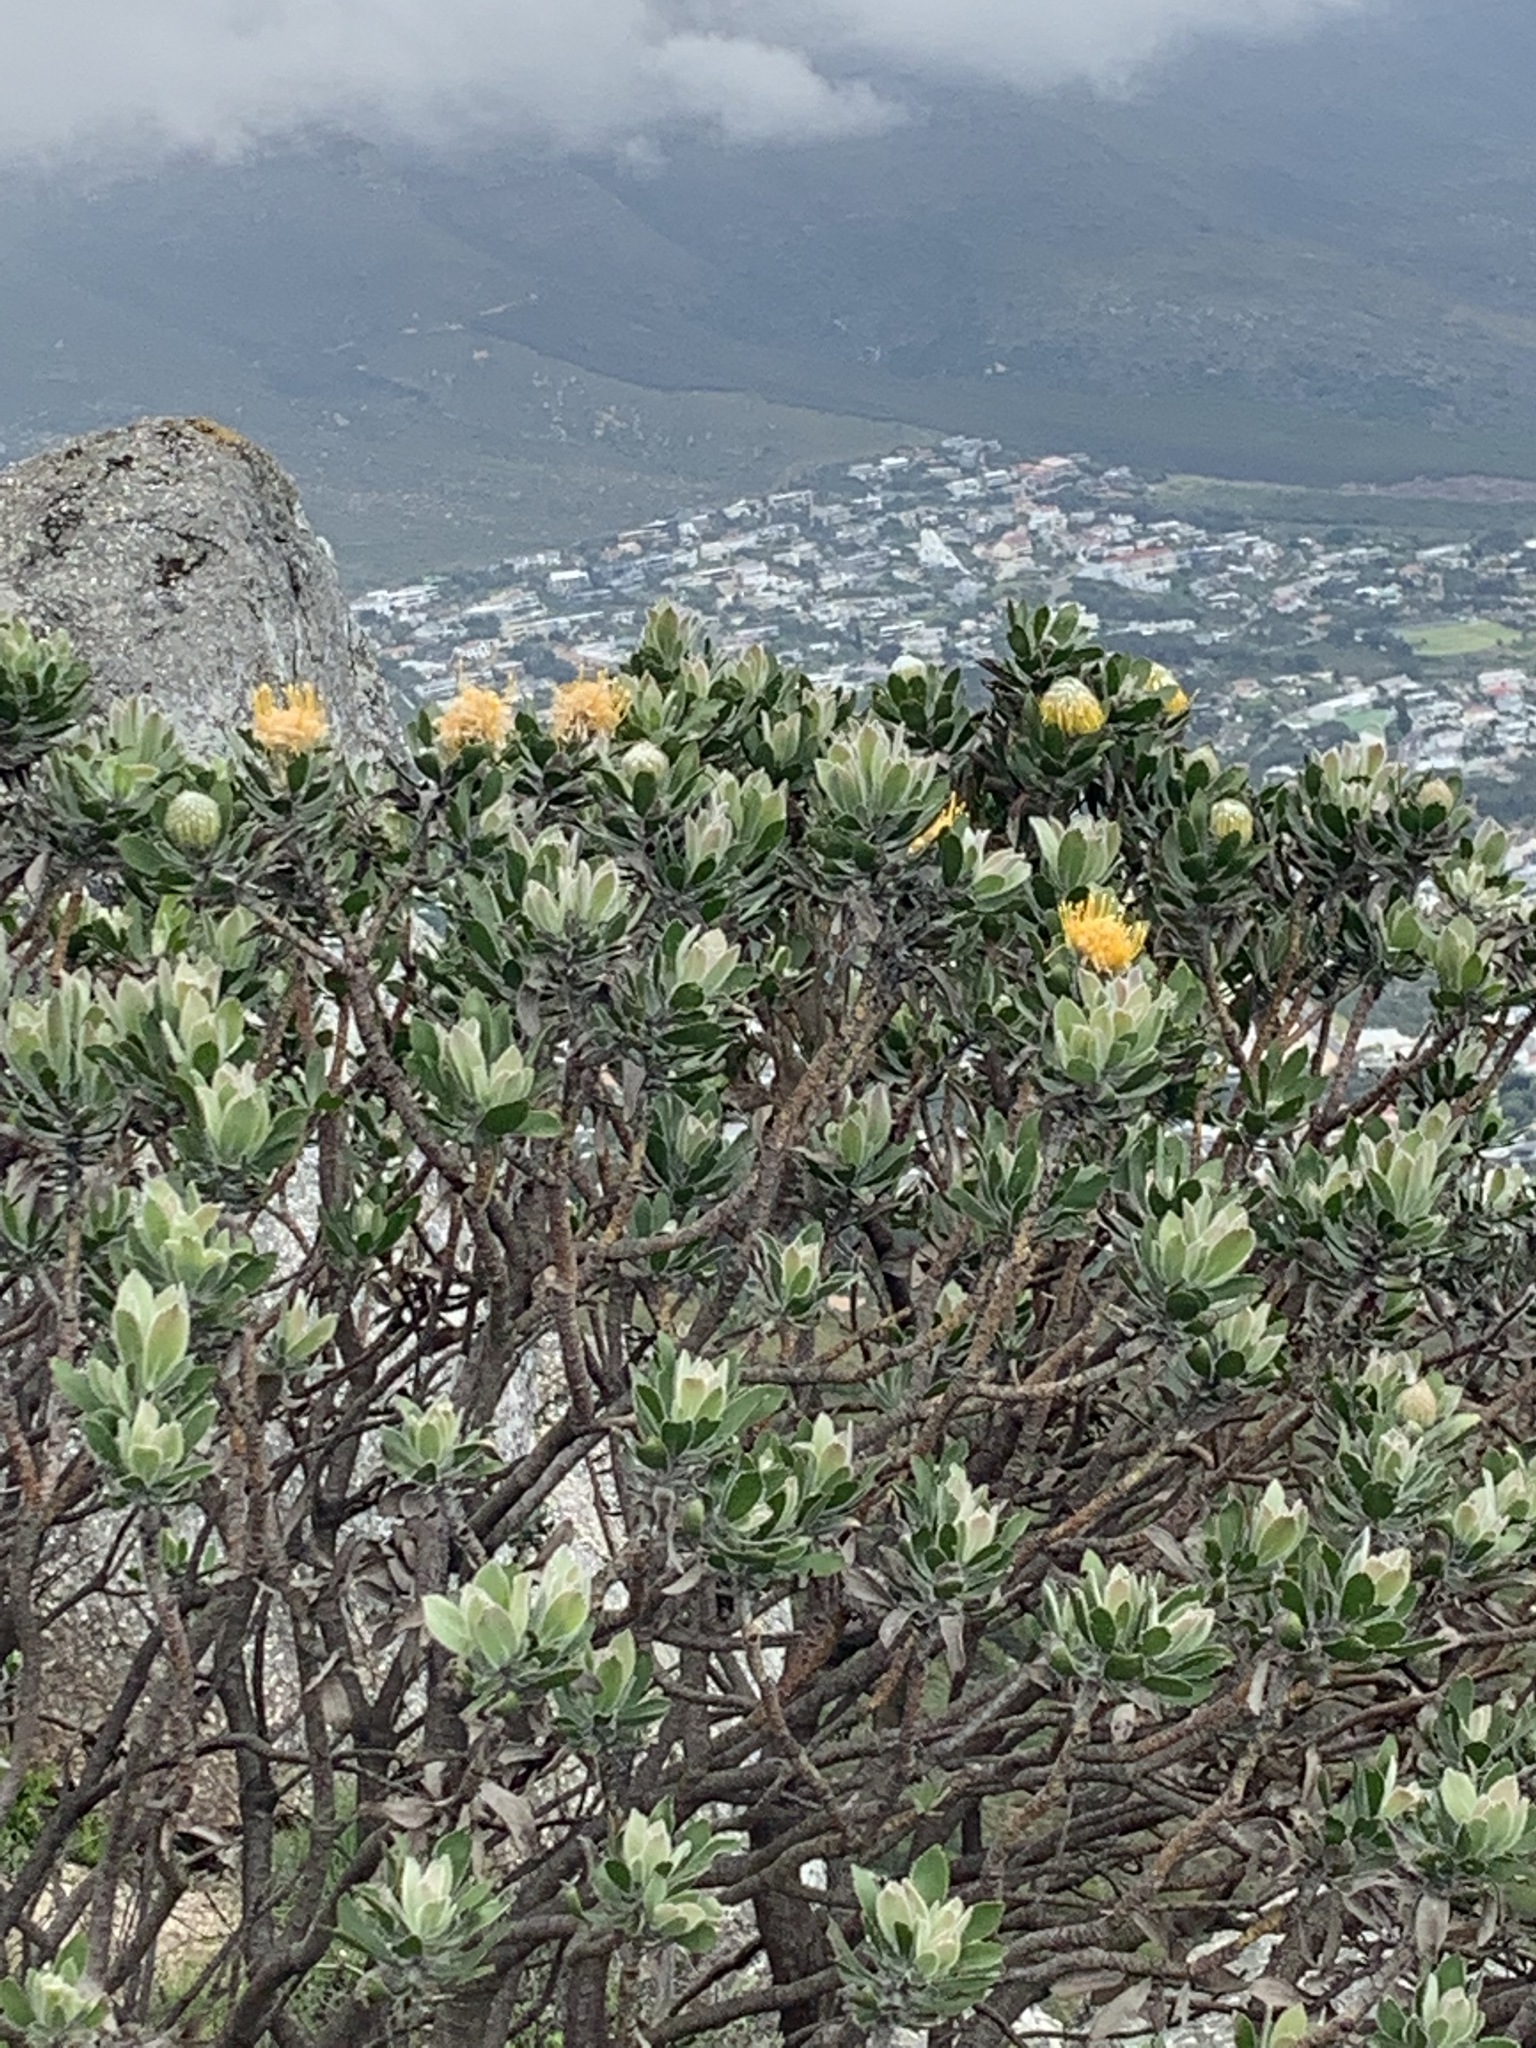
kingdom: Plantae
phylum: Tracheophyta
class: Magnoliopsida
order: Proteales
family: Proteaceae
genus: Leucospermum
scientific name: Leucospermum conocarpodendron
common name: Tree pincushion
